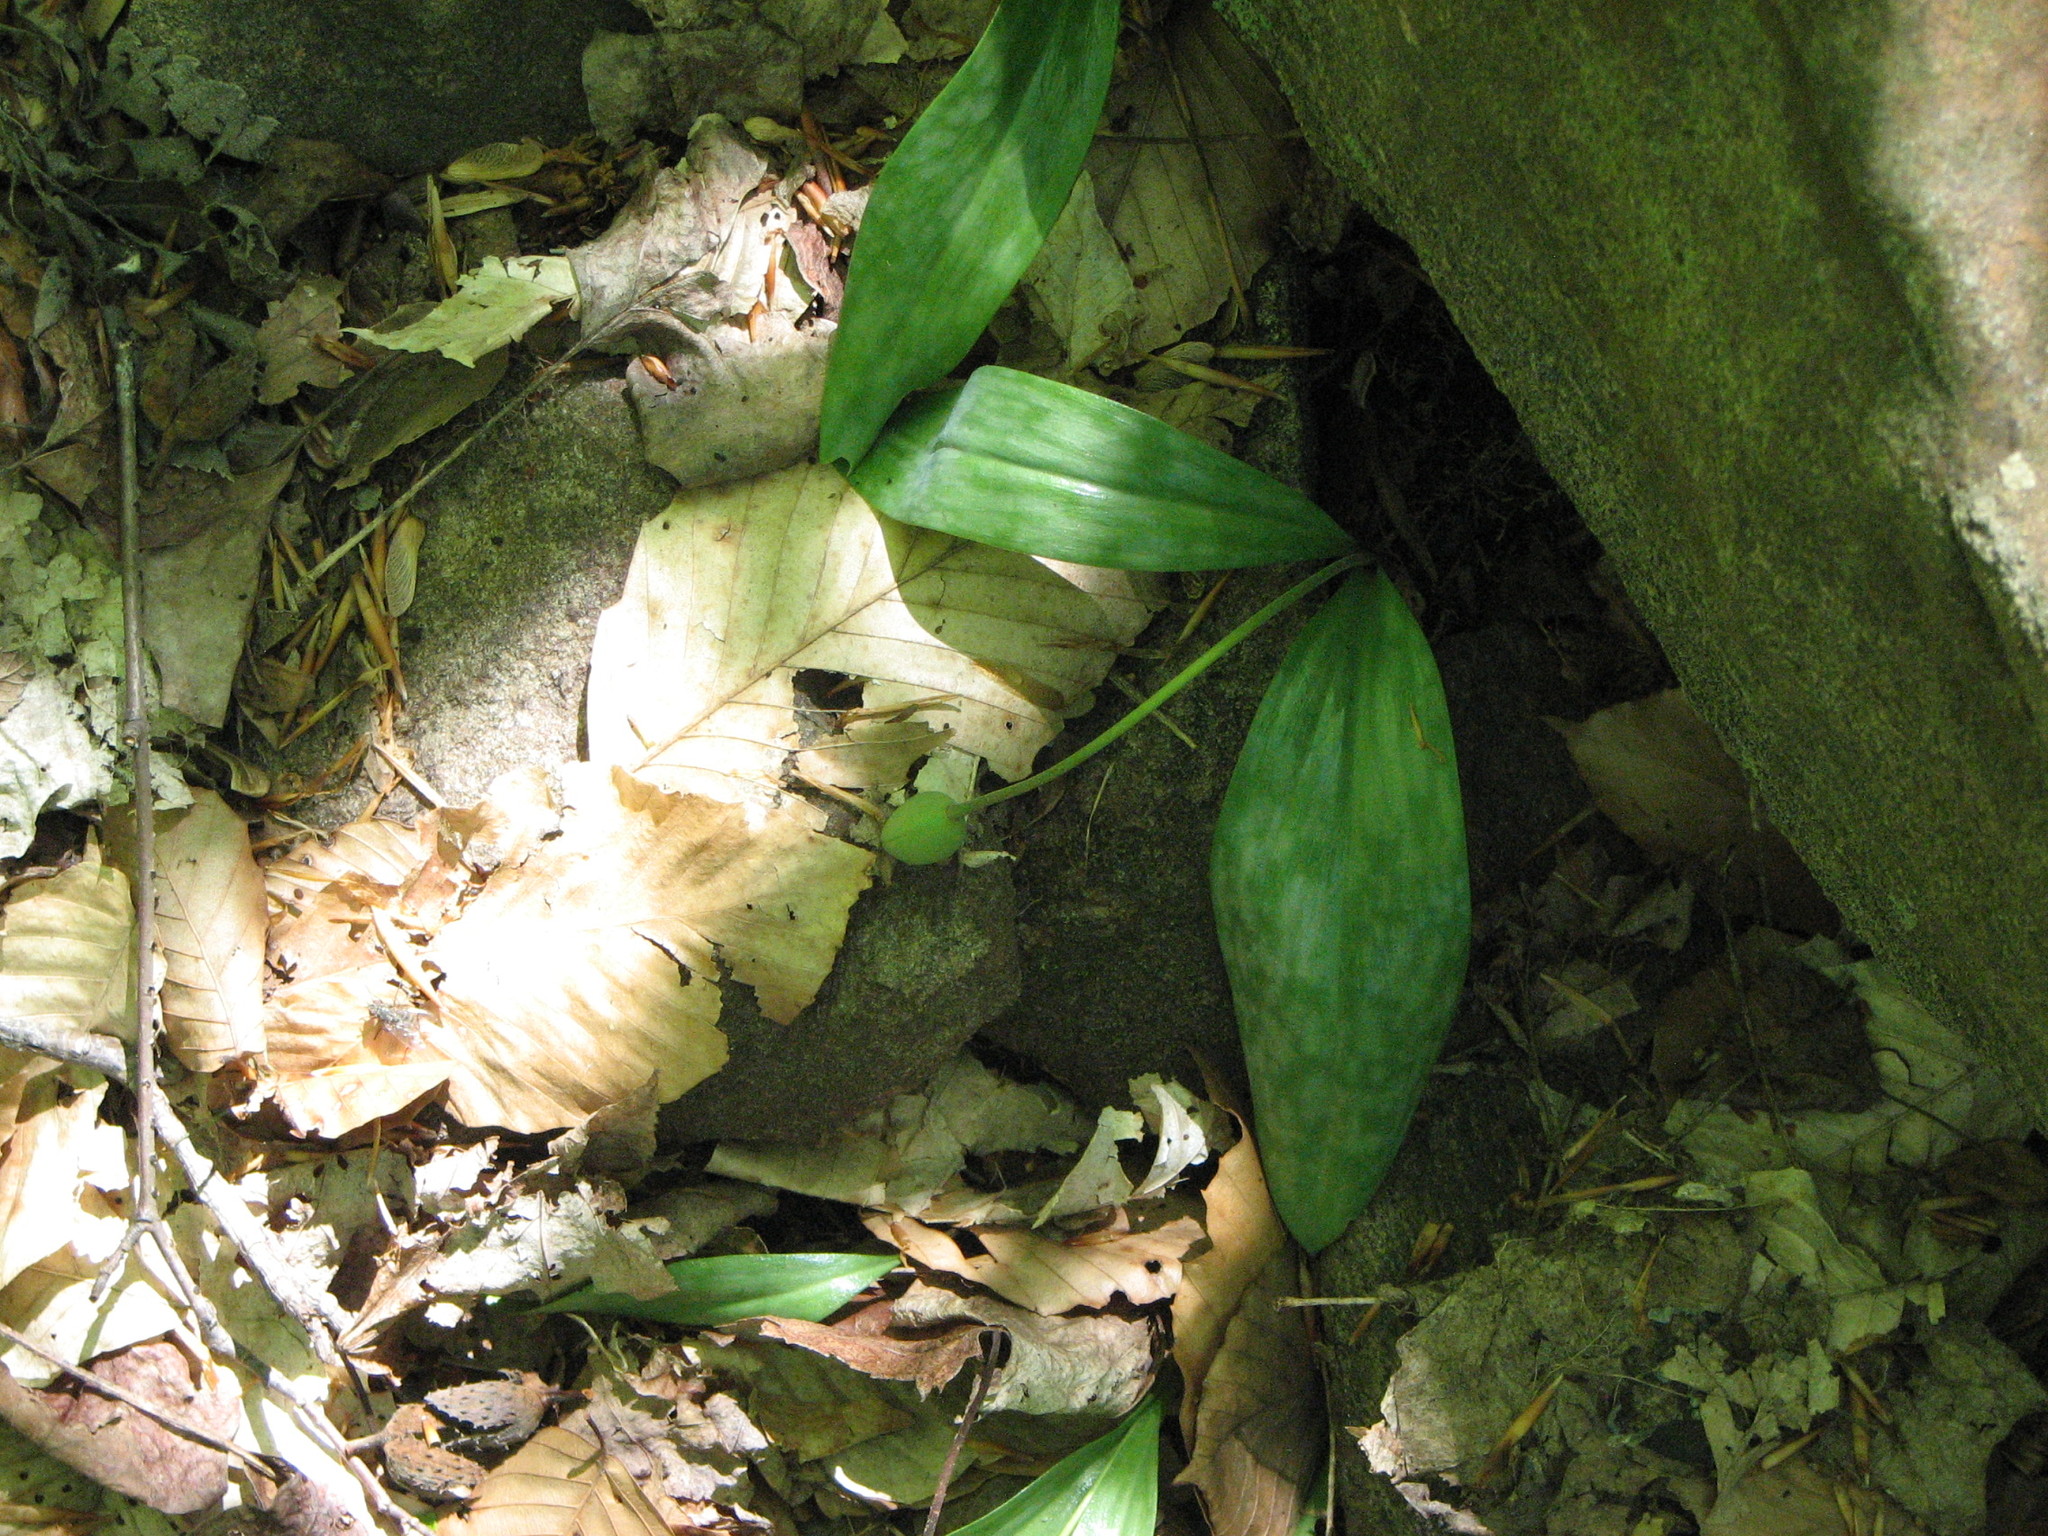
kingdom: Plantae
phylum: Tracheophyta
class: Liliopsida
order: Liliales
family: Liliaceae
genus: Erythronium
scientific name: Erythronium americanum
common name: Yellow adder's-tongue
